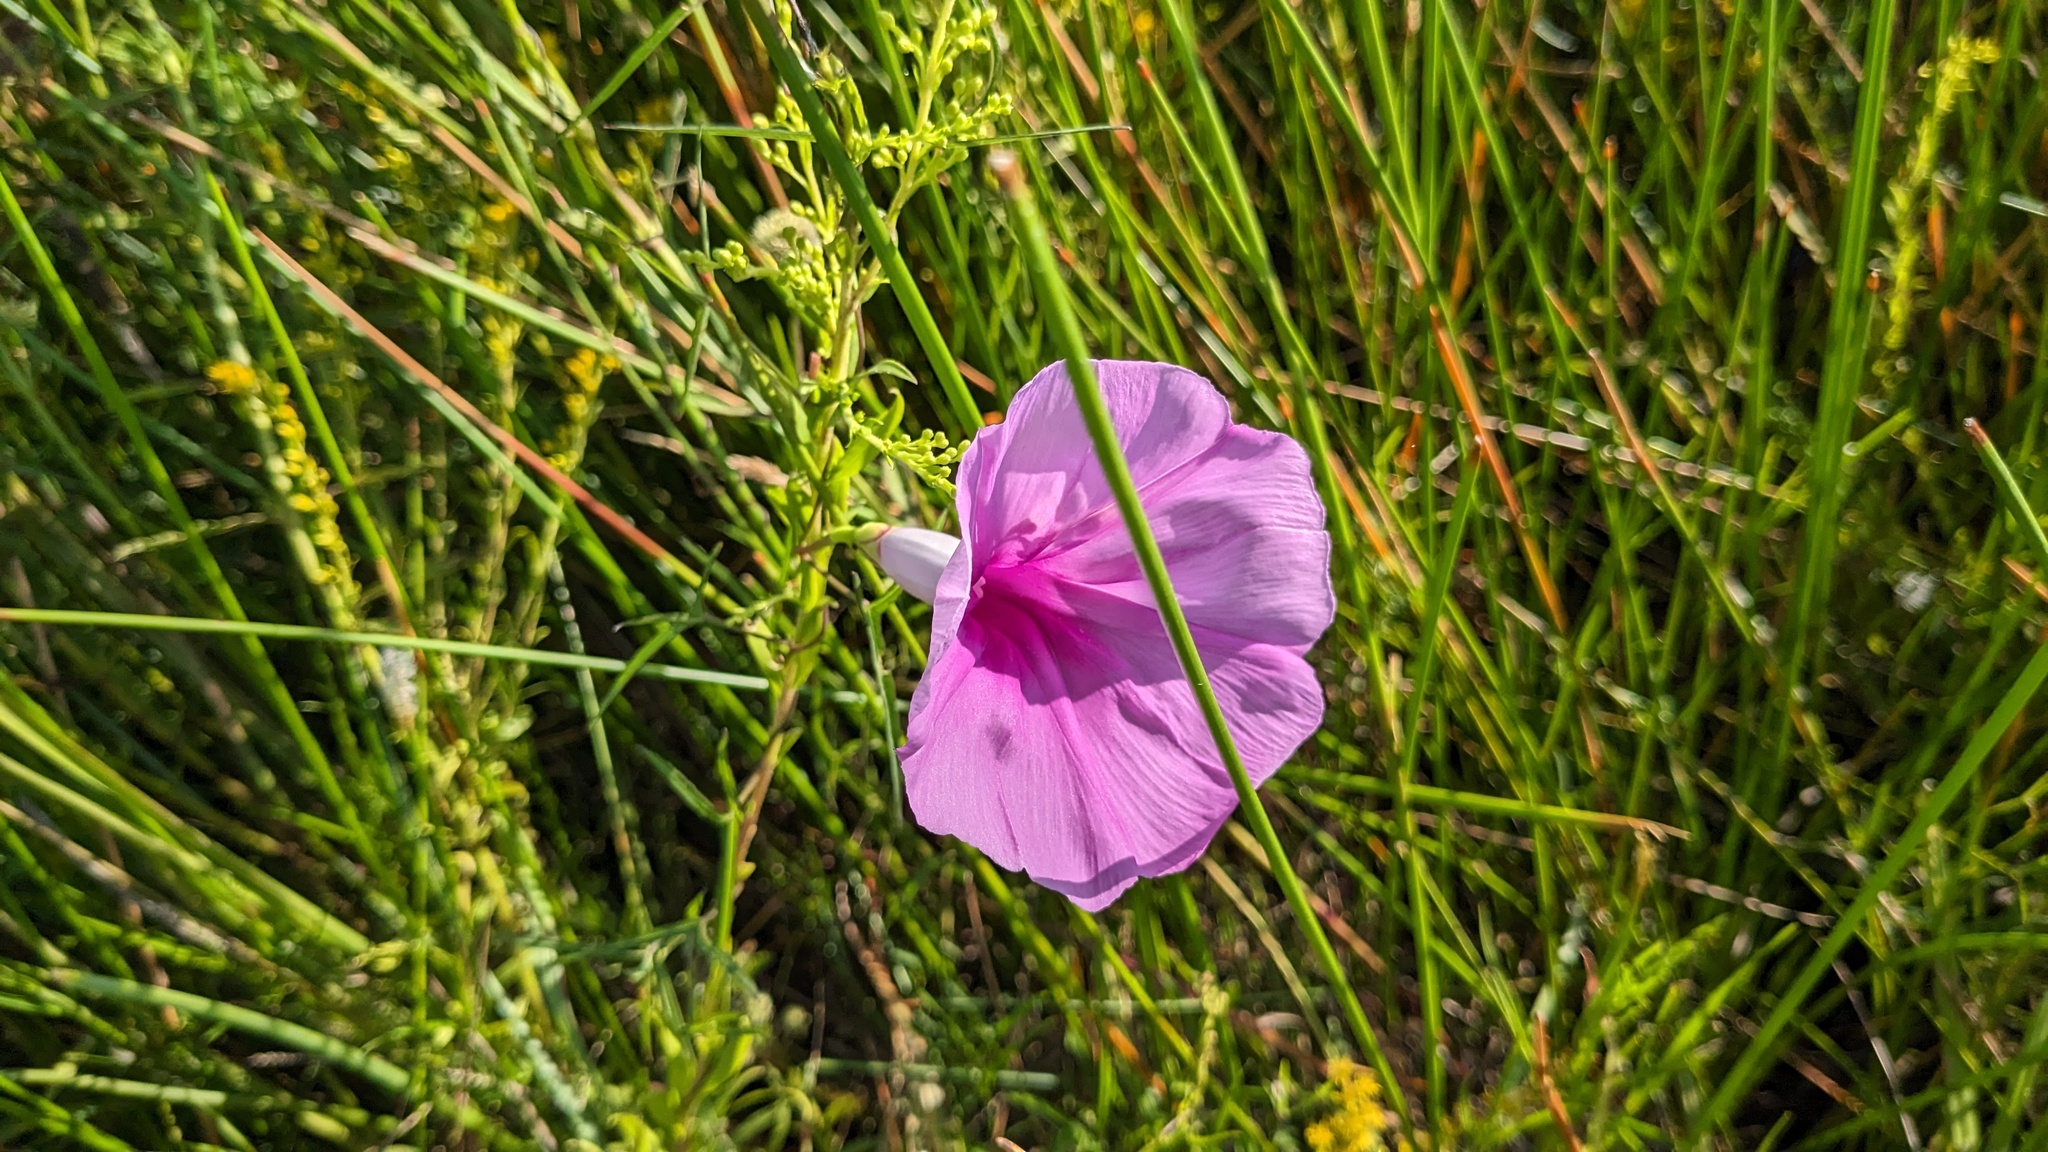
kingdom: Plantae
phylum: Tracheophyta
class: Magnoliopsida
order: Solanales
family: Convolvulaceae
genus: Ipomoea
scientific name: Ipomoea sagittata
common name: Saltmarsh morning glory
